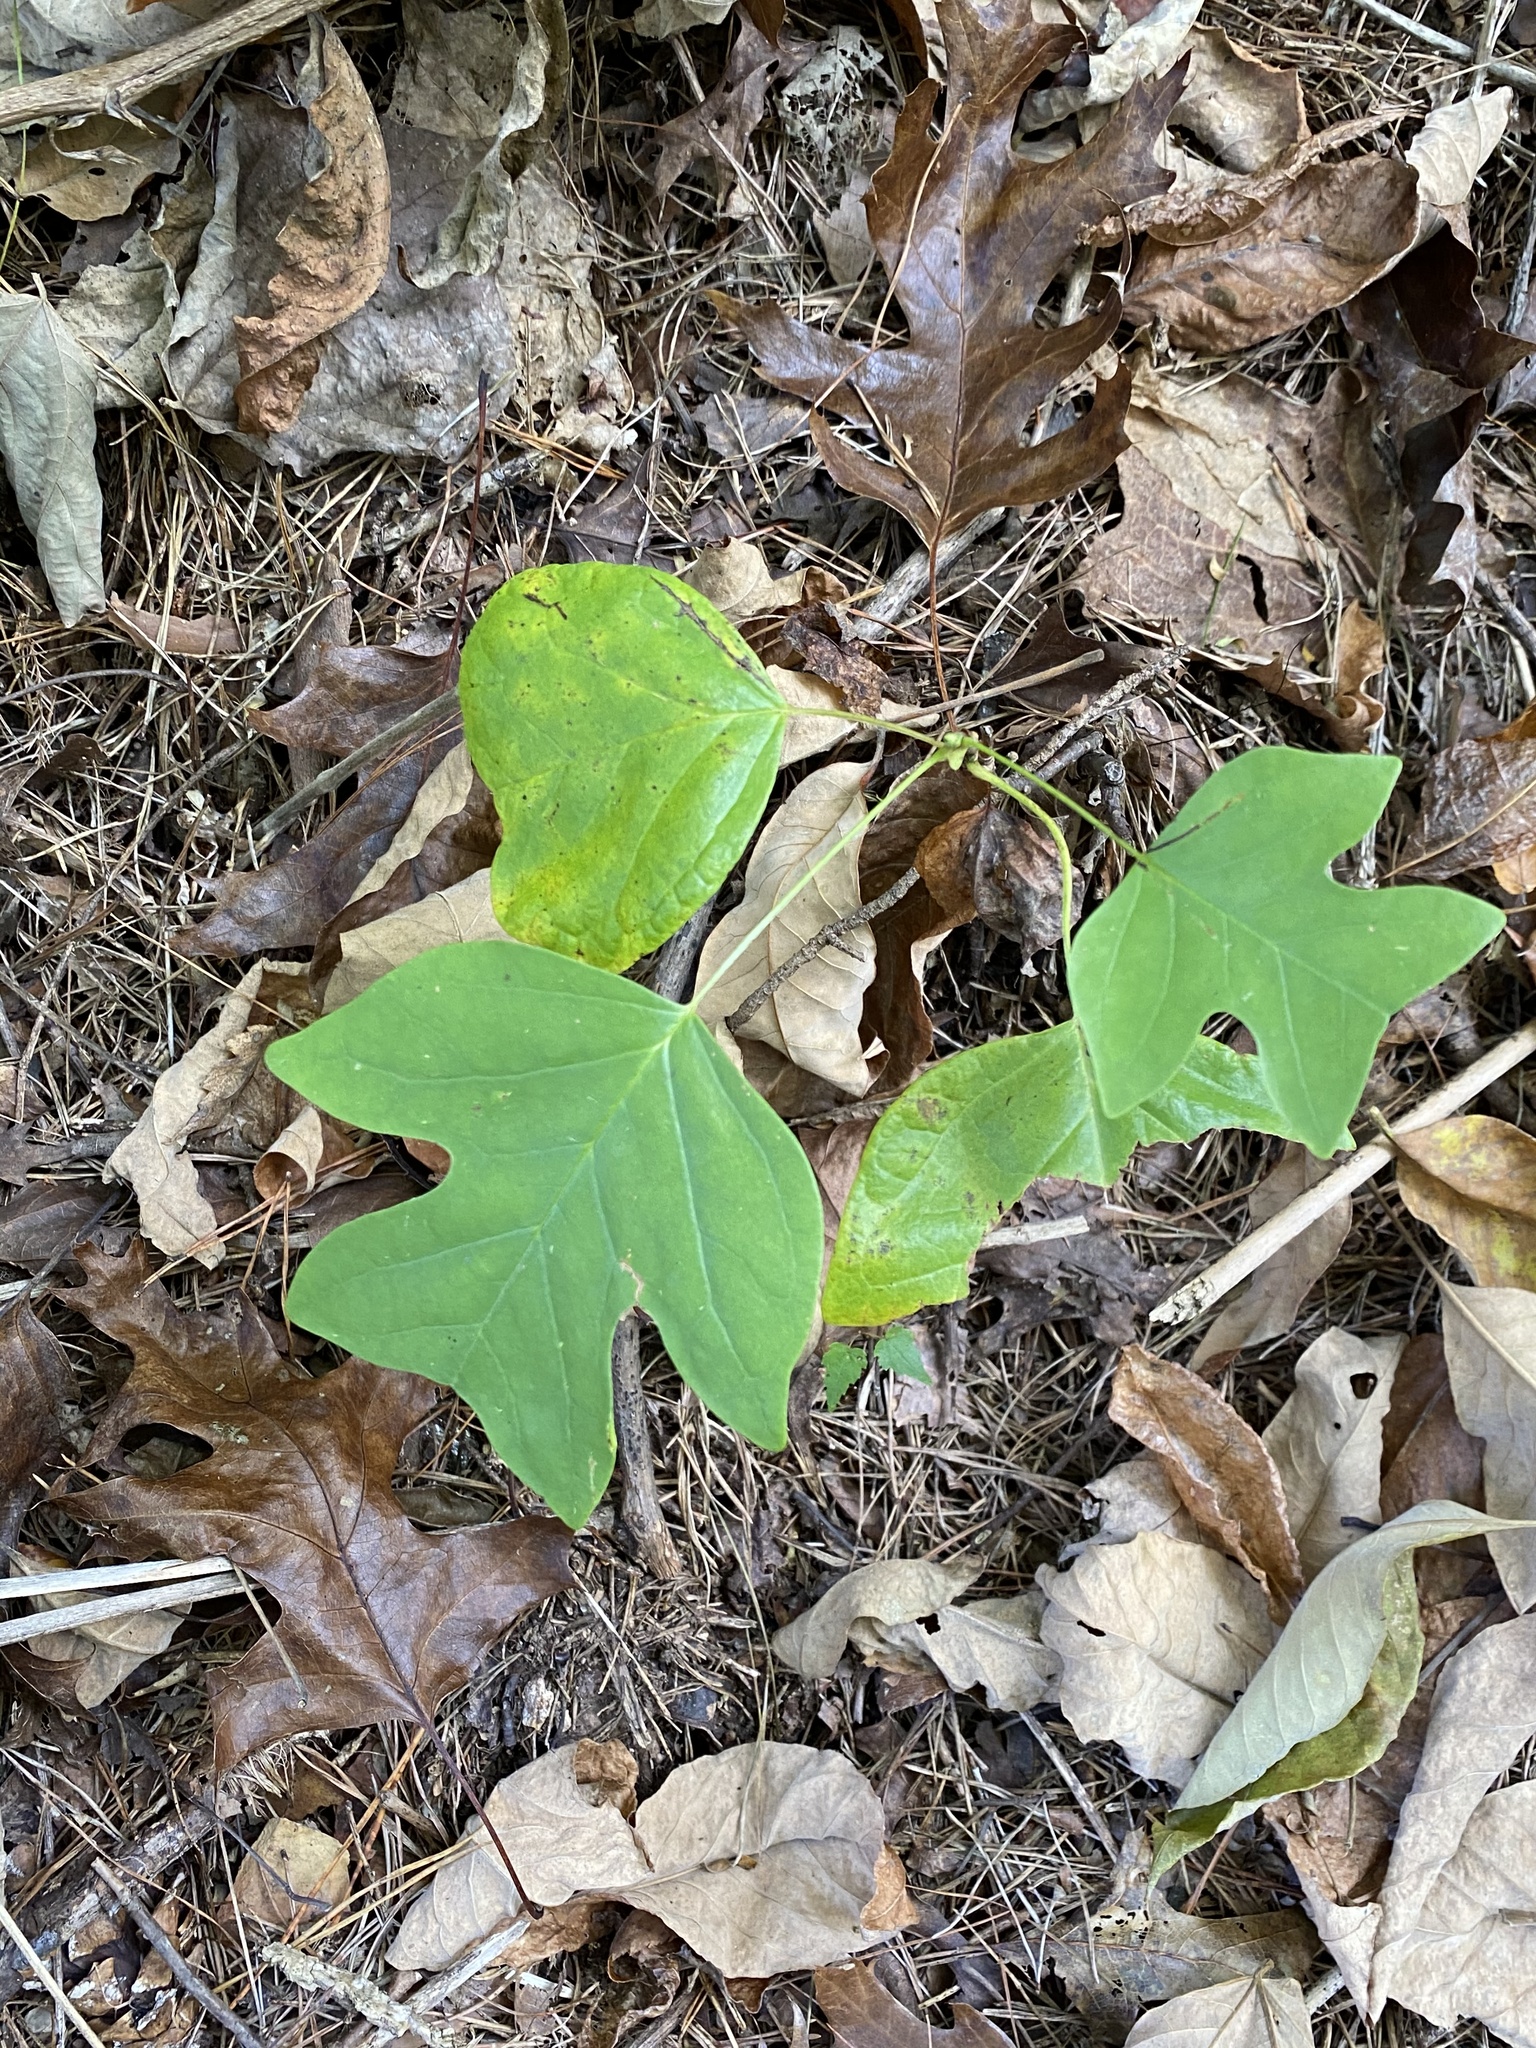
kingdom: Plantae
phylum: Tracheophyta
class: Magnoliopsida
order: Magnoliales
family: Magnoliaceae
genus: Liriodendron
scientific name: Liriodendron tulipifera
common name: Tulip tree
